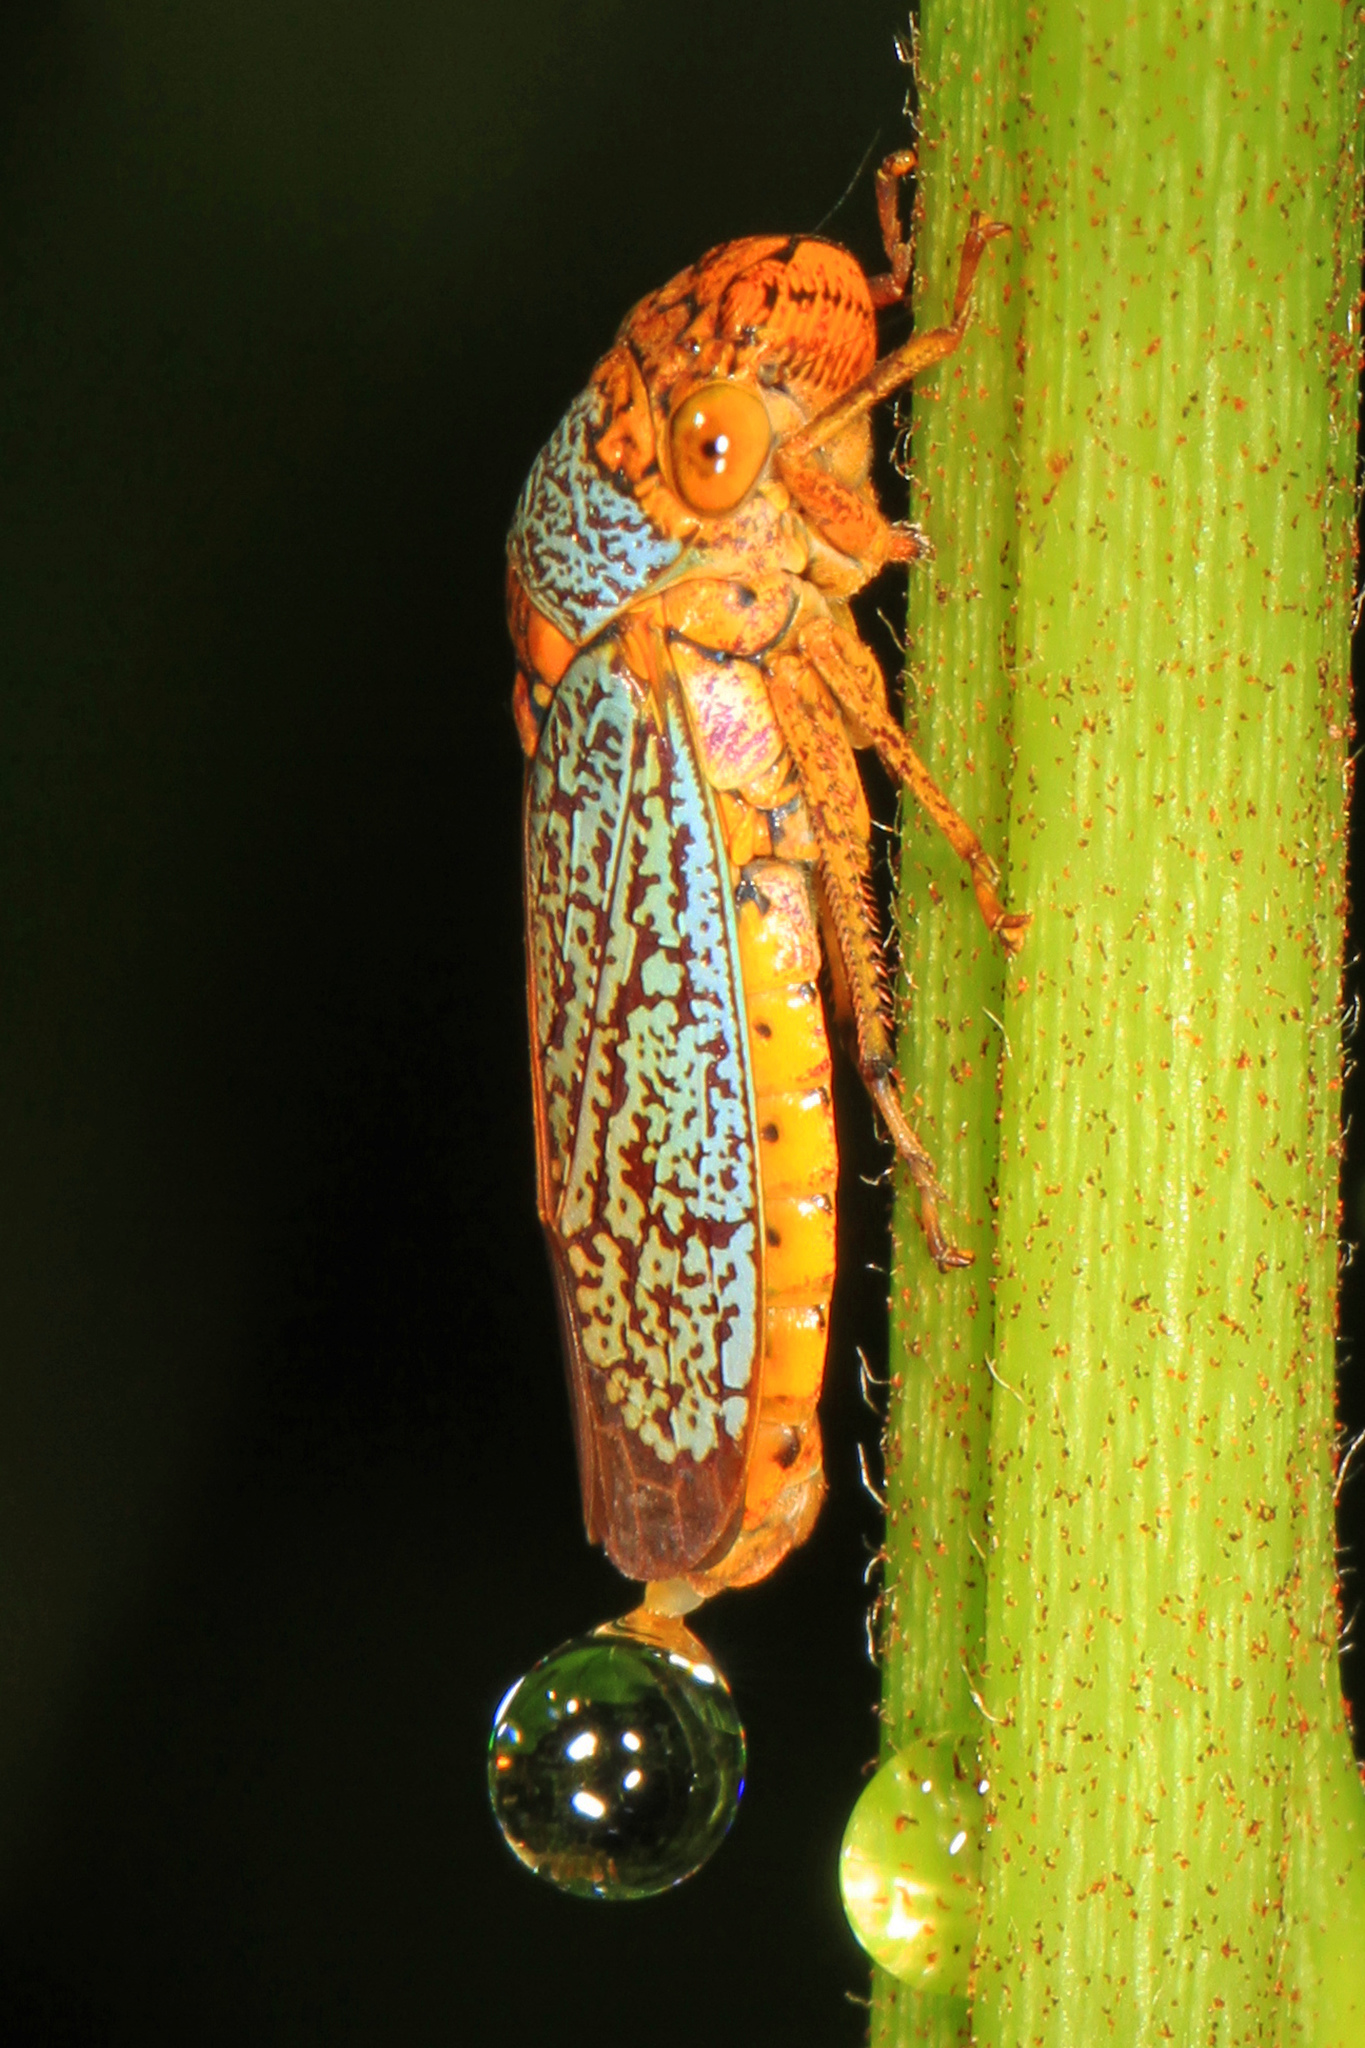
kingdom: Animalia
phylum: Arthropoda
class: Insecta
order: Hemiptera
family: Cicadellidae
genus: Oncometopia
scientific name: Oncometopia orbona
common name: Broad-headed sharpshooter
